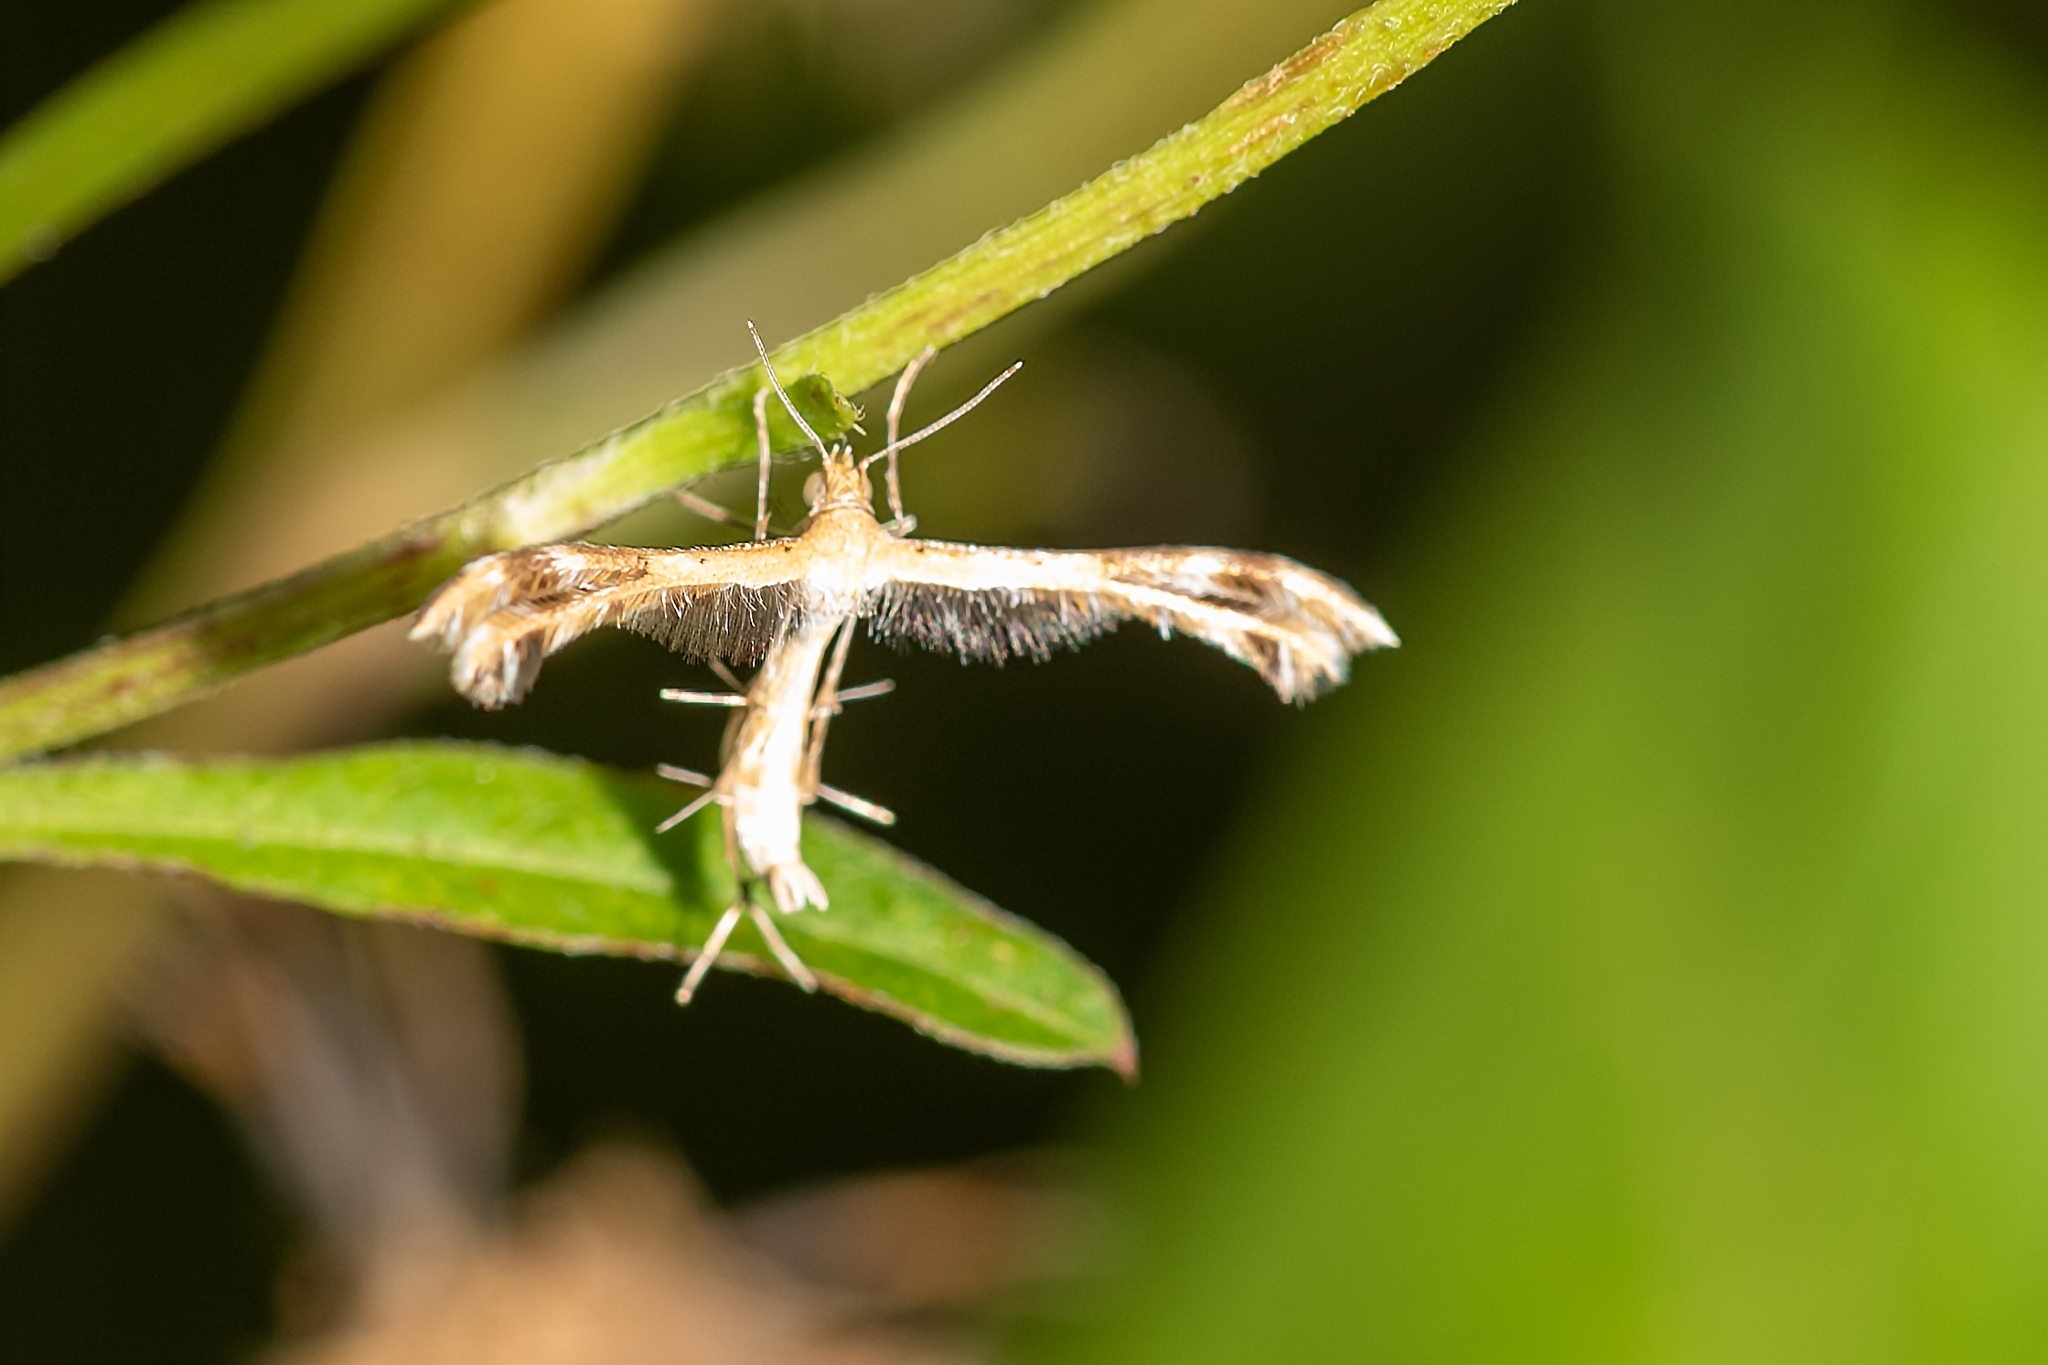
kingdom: Animalia
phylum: Arthropoda
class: Insecta
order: Lepidoptera
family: Pterophoridae
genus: Megalorhipida
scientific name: Megalorhipida leucodactylus
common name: Plume moth
